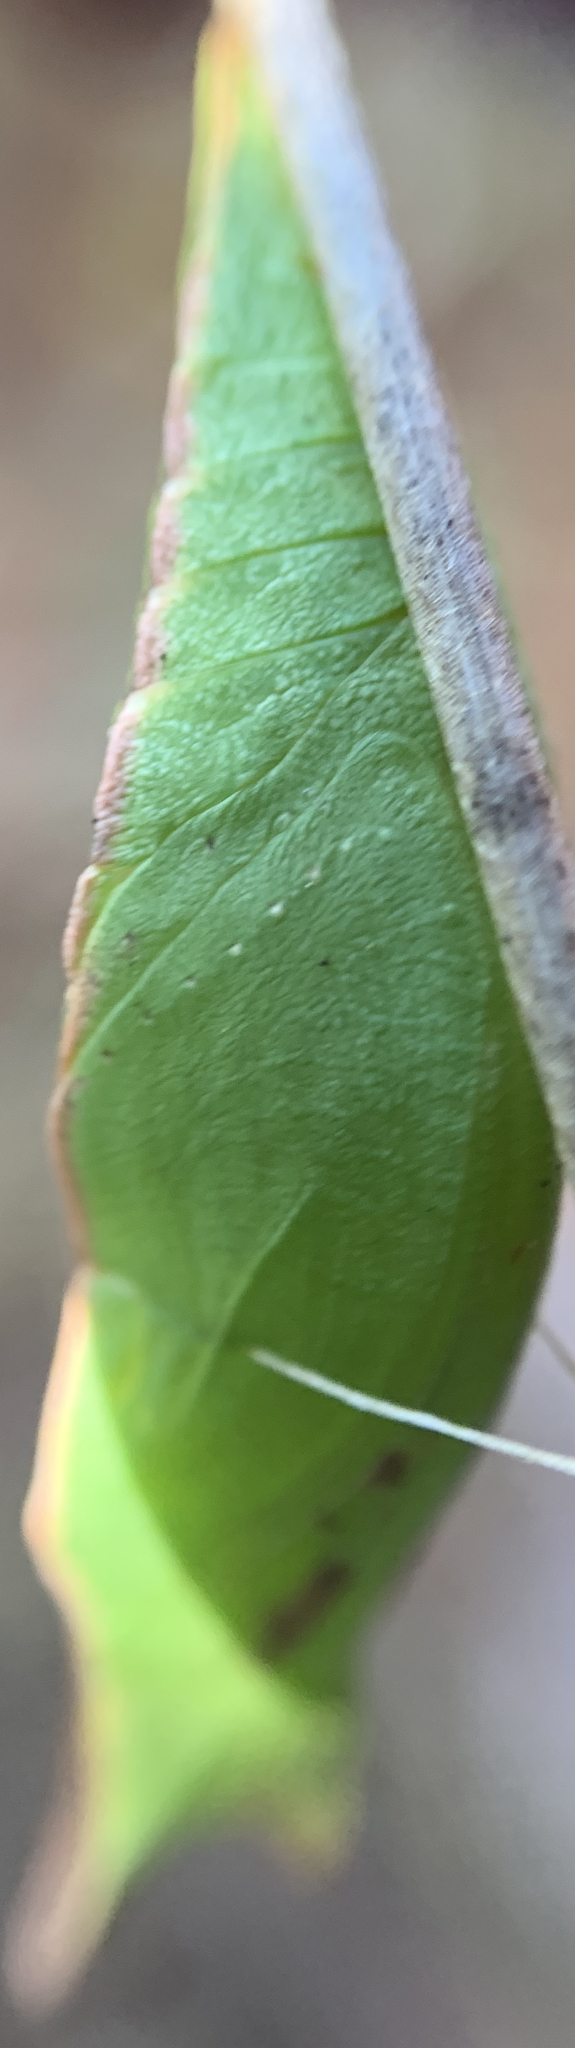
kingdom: Animalia
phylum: Arthropoda
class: Insecta
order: Lepidoptera
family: Papilionidae
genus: Papilio
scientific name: Papilio troilus
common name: Spicebush swallowtail
